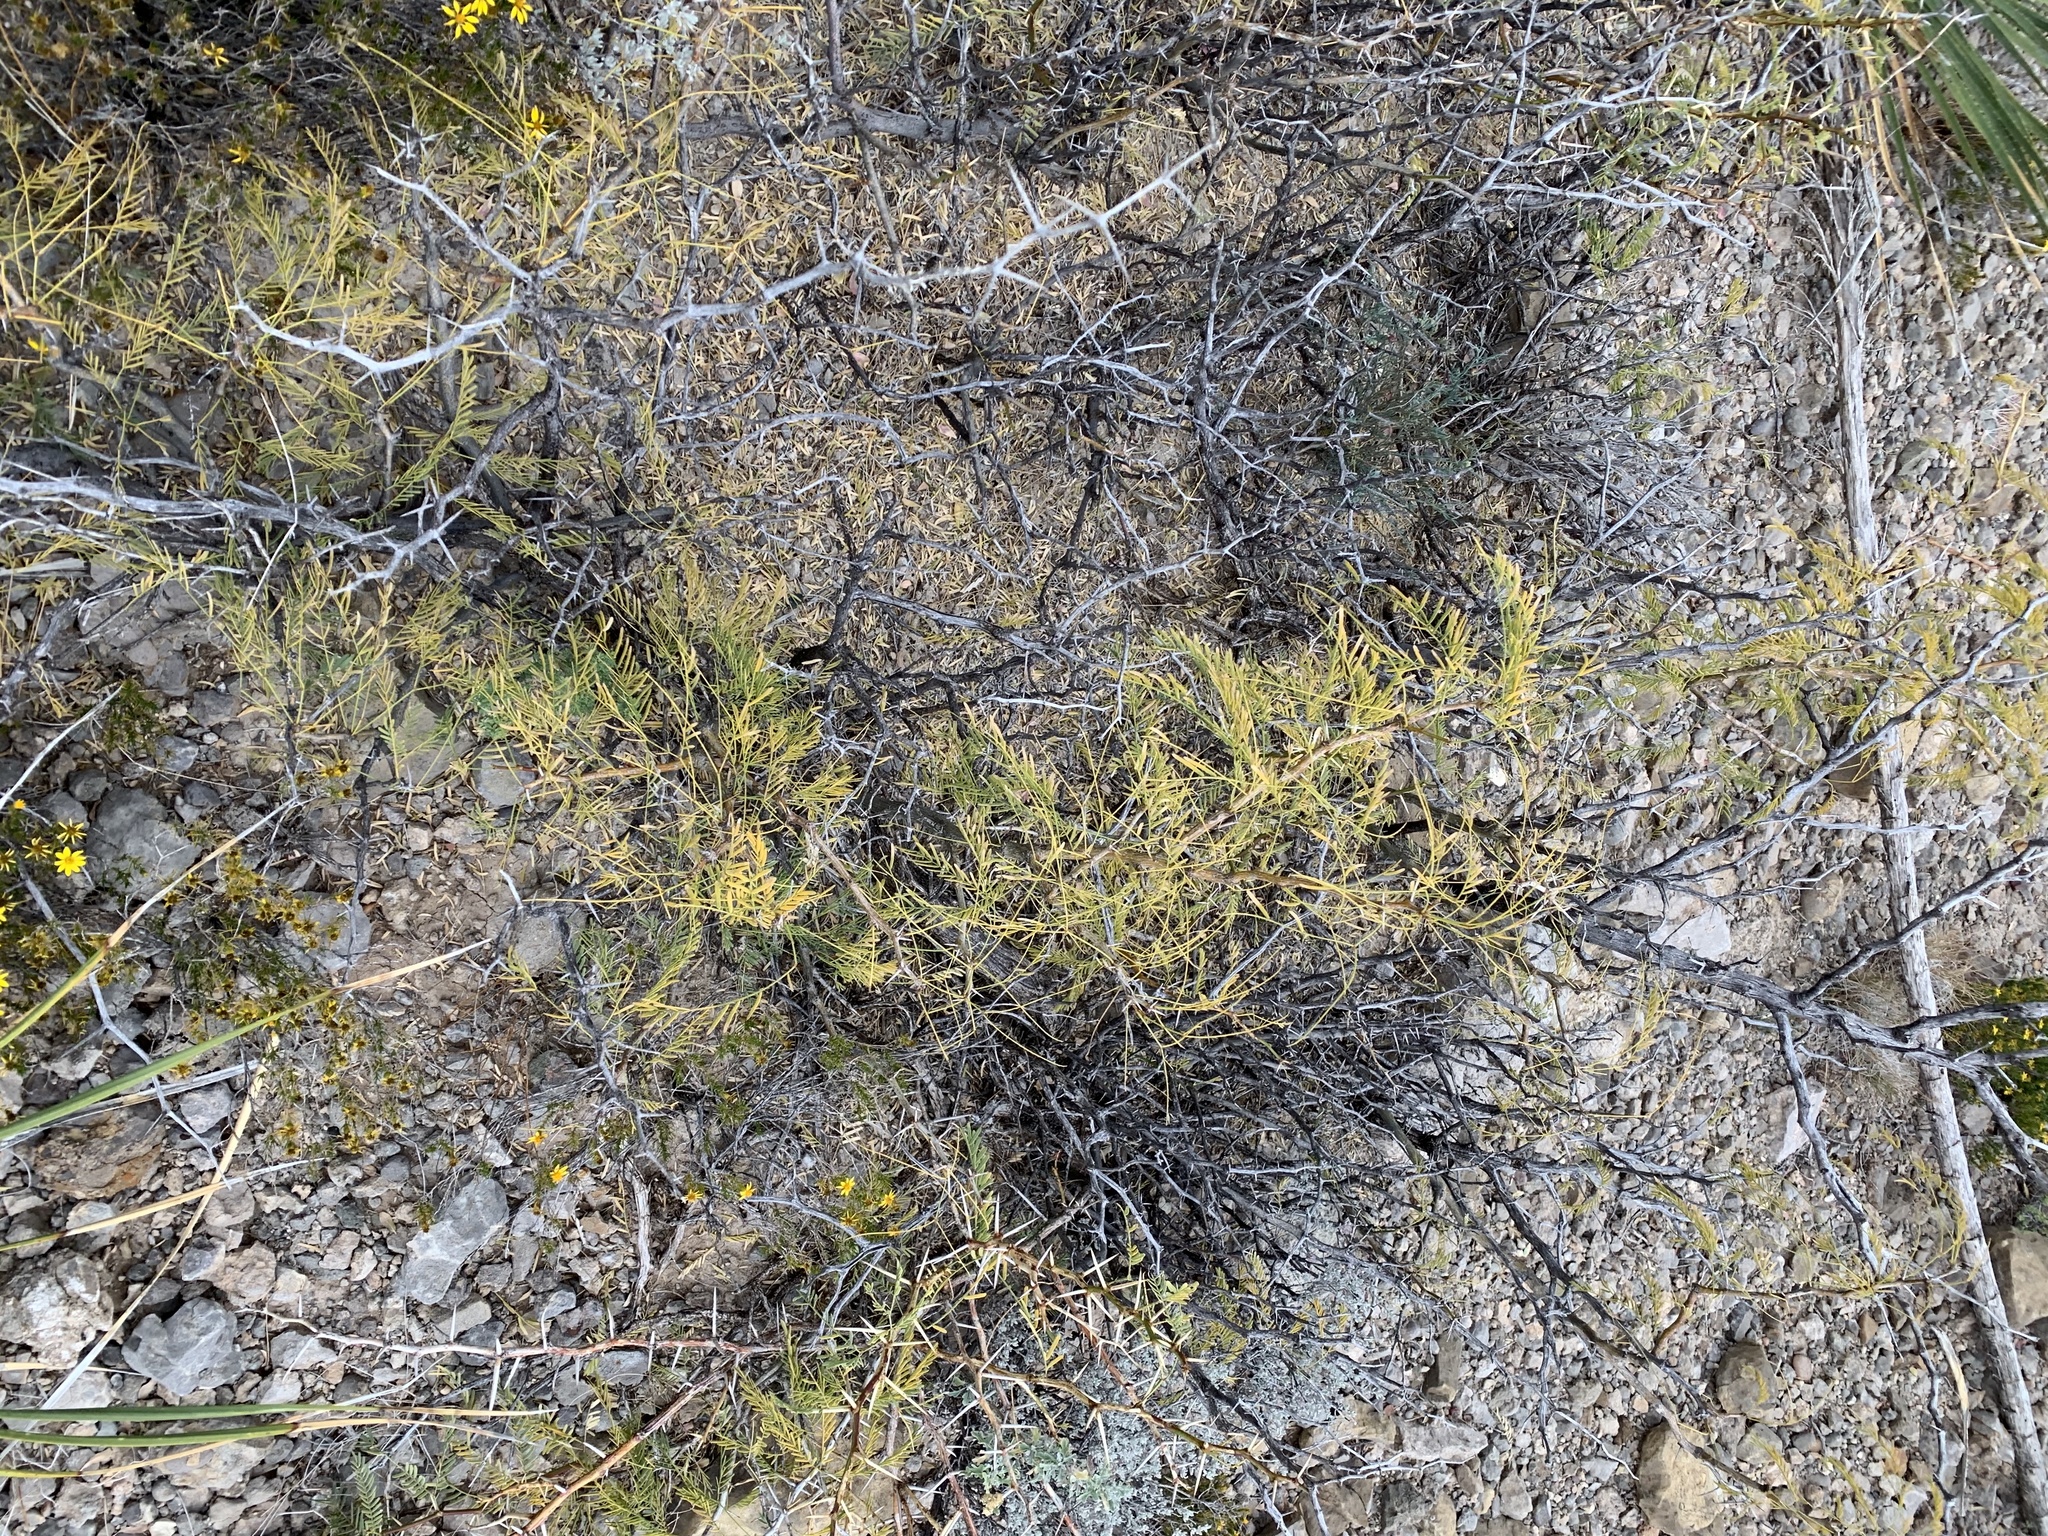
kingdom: Plantae
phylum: Tracheophyta
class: Magnoliopsida
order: Fabales
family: Fabaceae
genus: Prosopis
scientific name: Prosopis glandulosa
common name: Honey mesquite
